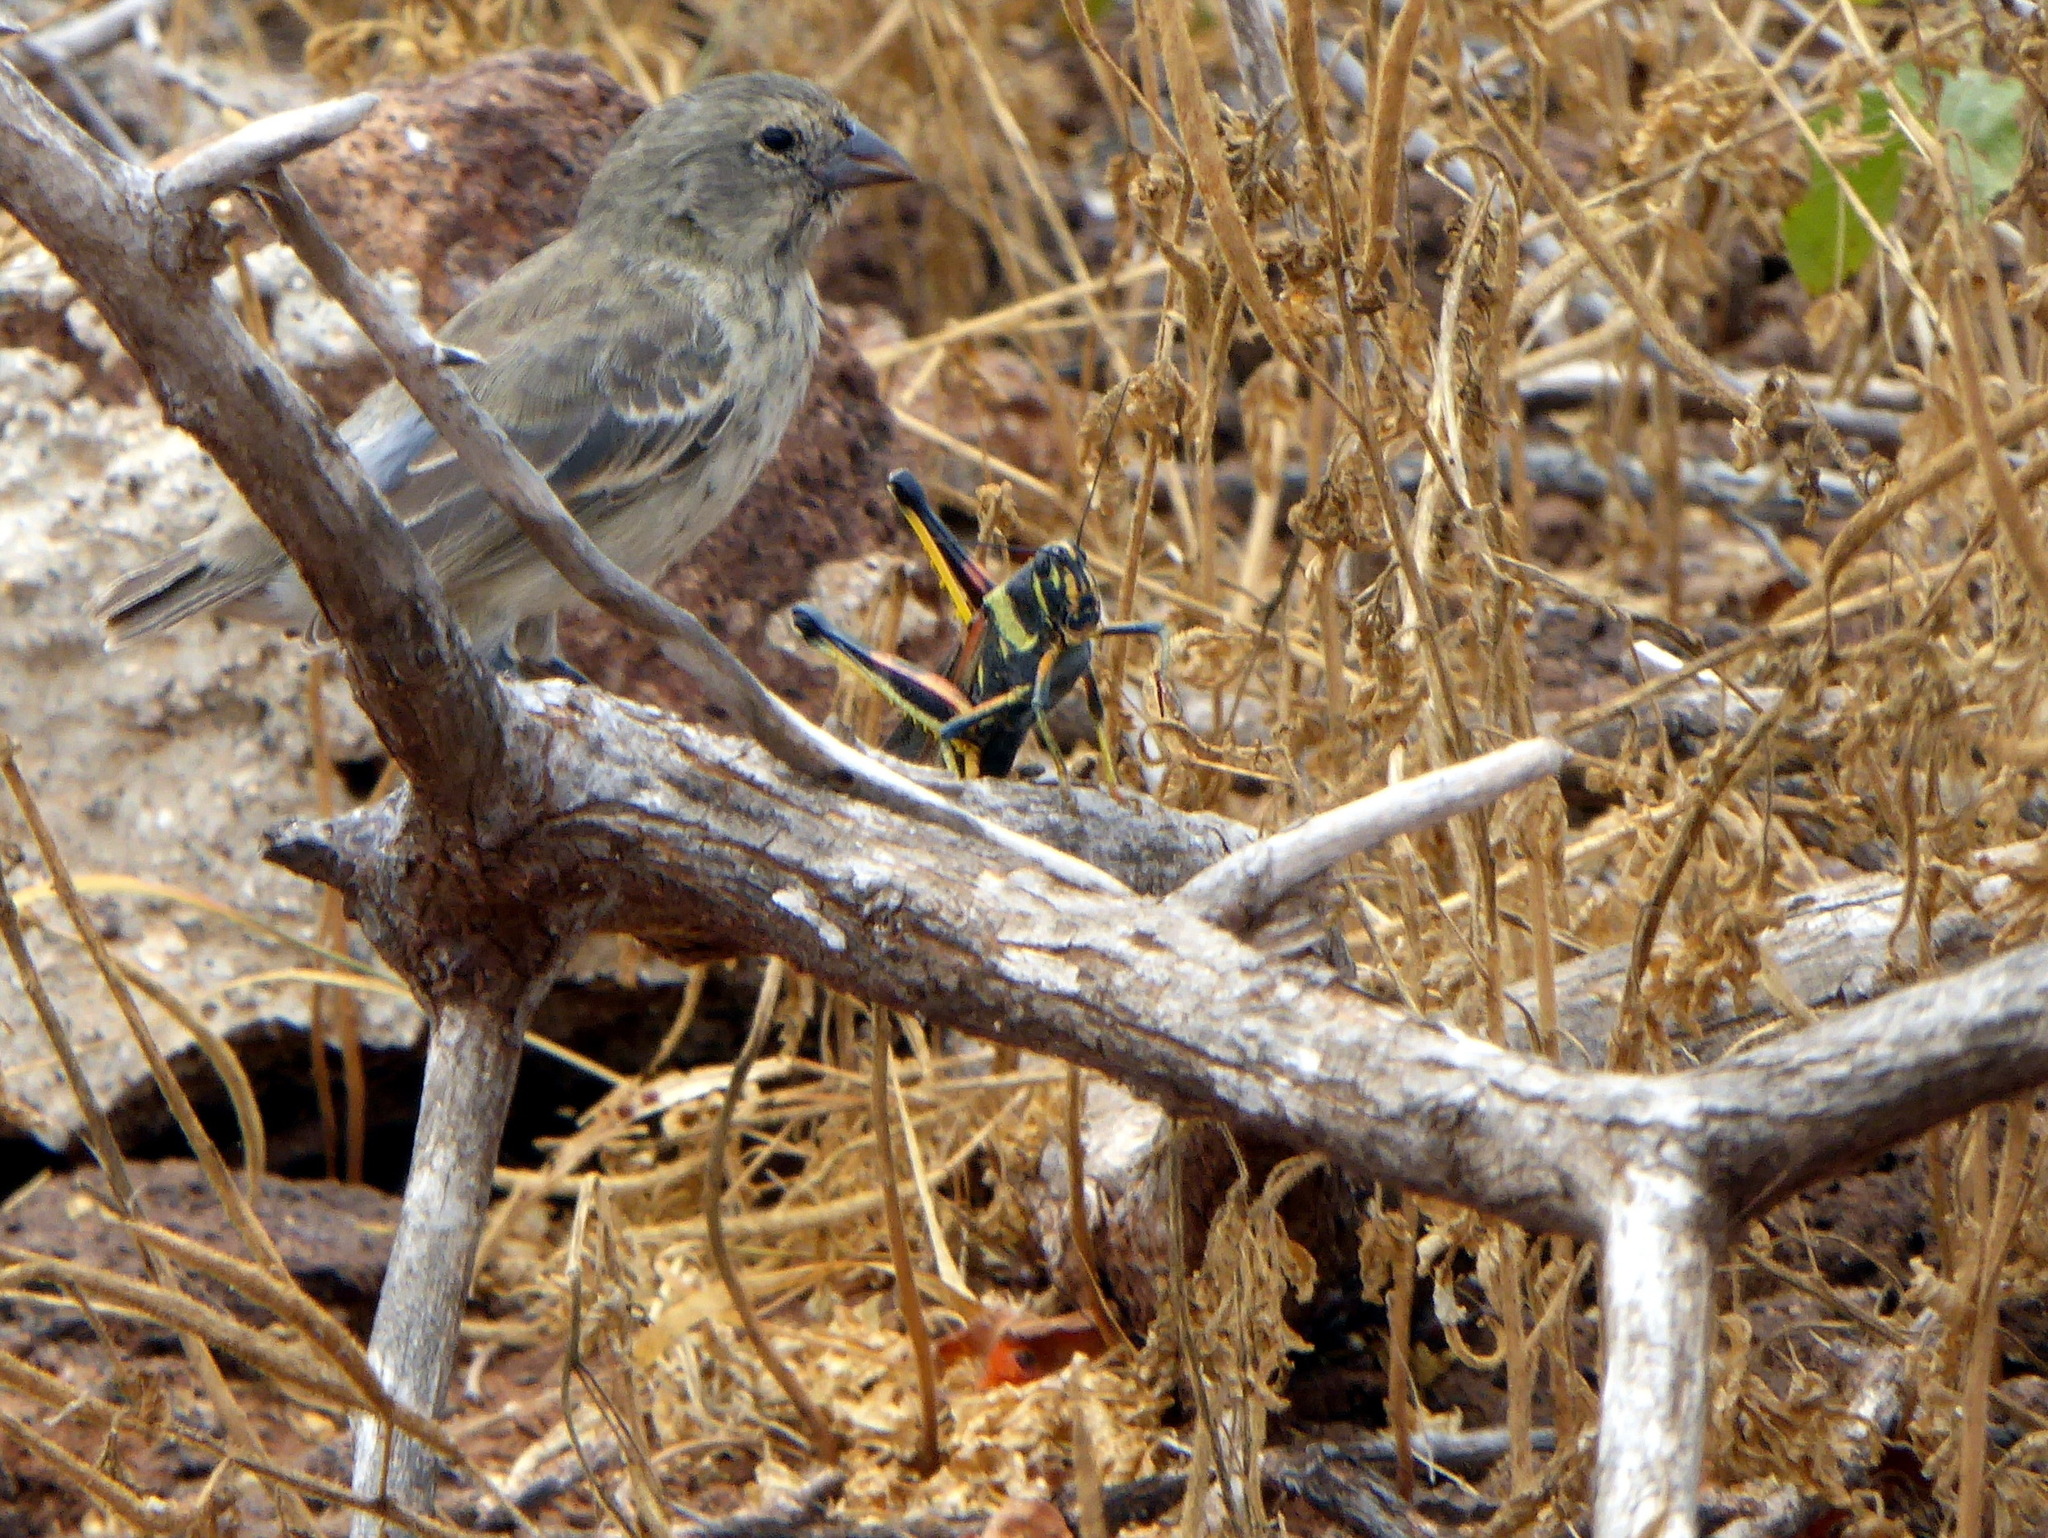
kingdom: Animalia
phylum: Arthropoda
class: Insecta
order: Orthoptera
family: Acrididae
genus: Schistocerca
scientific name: Schistocerca melanocera
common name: Large painted locust
